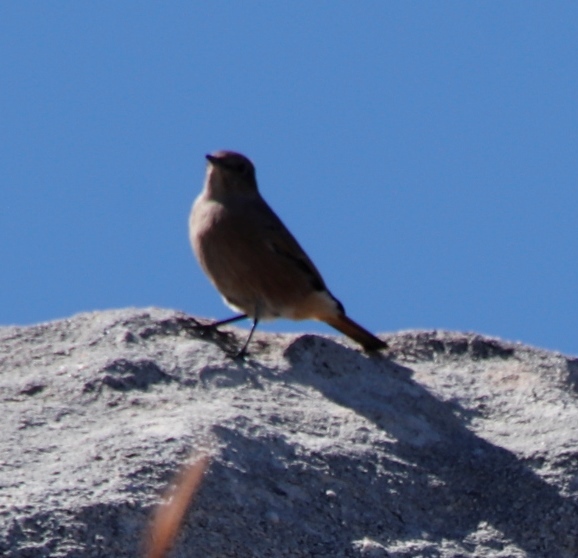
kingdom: Animalia
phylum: Chordata
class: Aves
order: Passeriformes
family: Muscicapidae
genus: Oenanthe
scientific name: Oenanthe familiaris
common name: Familiar chat
